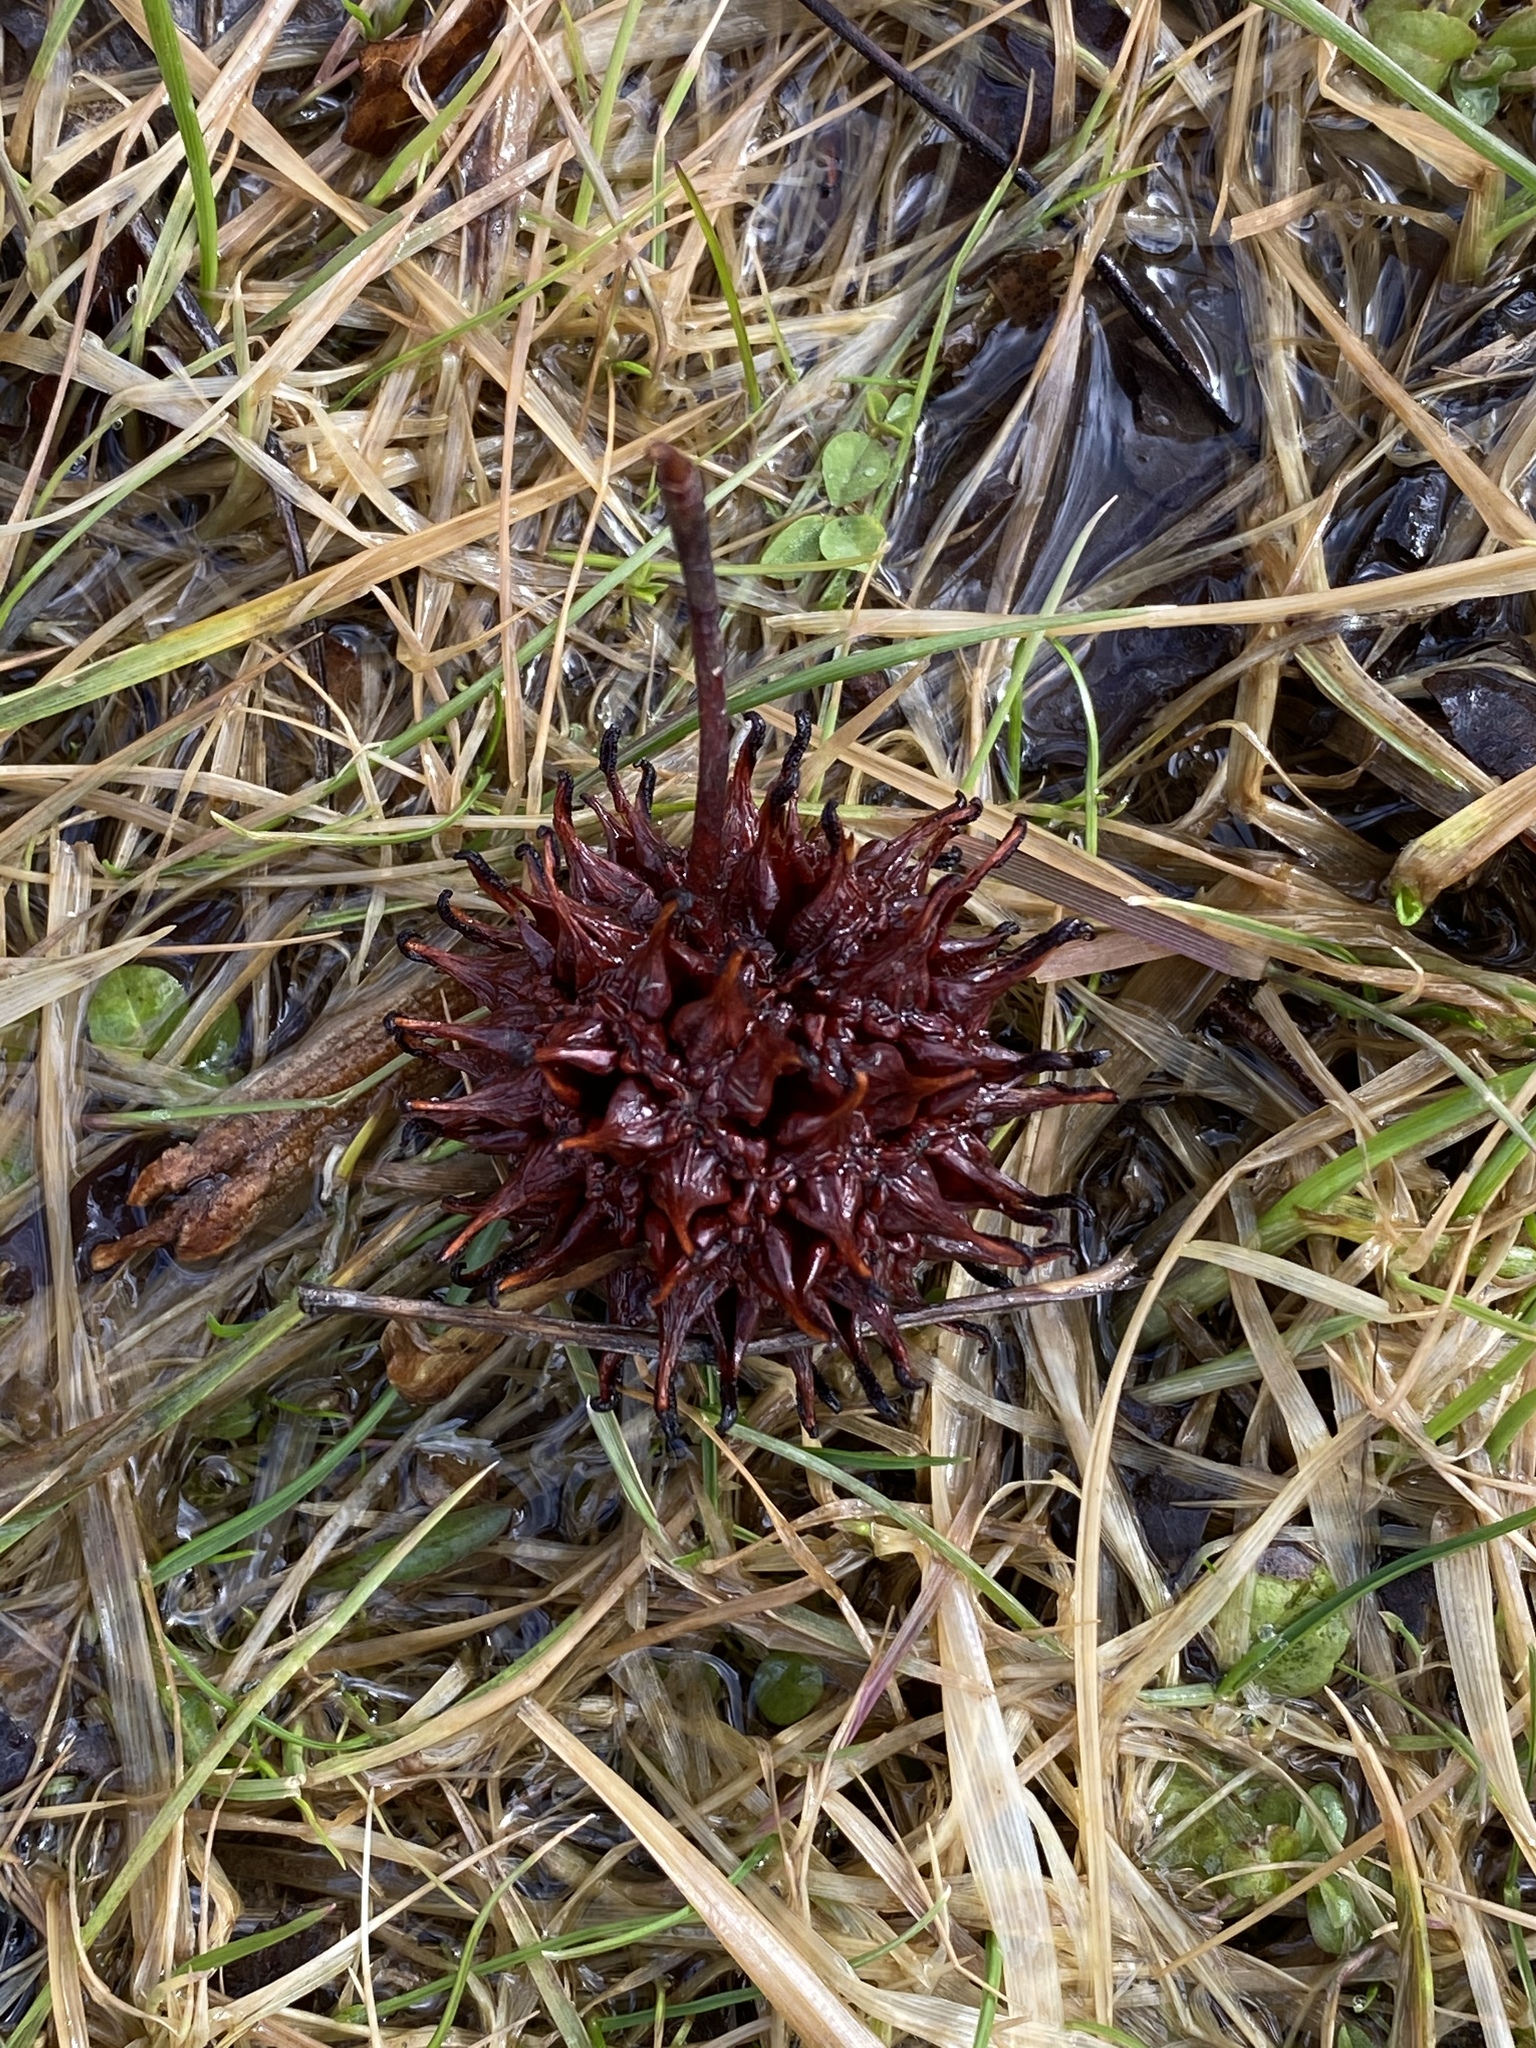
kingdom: Plantae
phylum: Tracheophyta
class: Magnoliopsida
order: Saxifragales
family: Altingiaceae
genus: Liquidambar
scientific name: Liquidambar styraciflua
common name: Sweet gum
